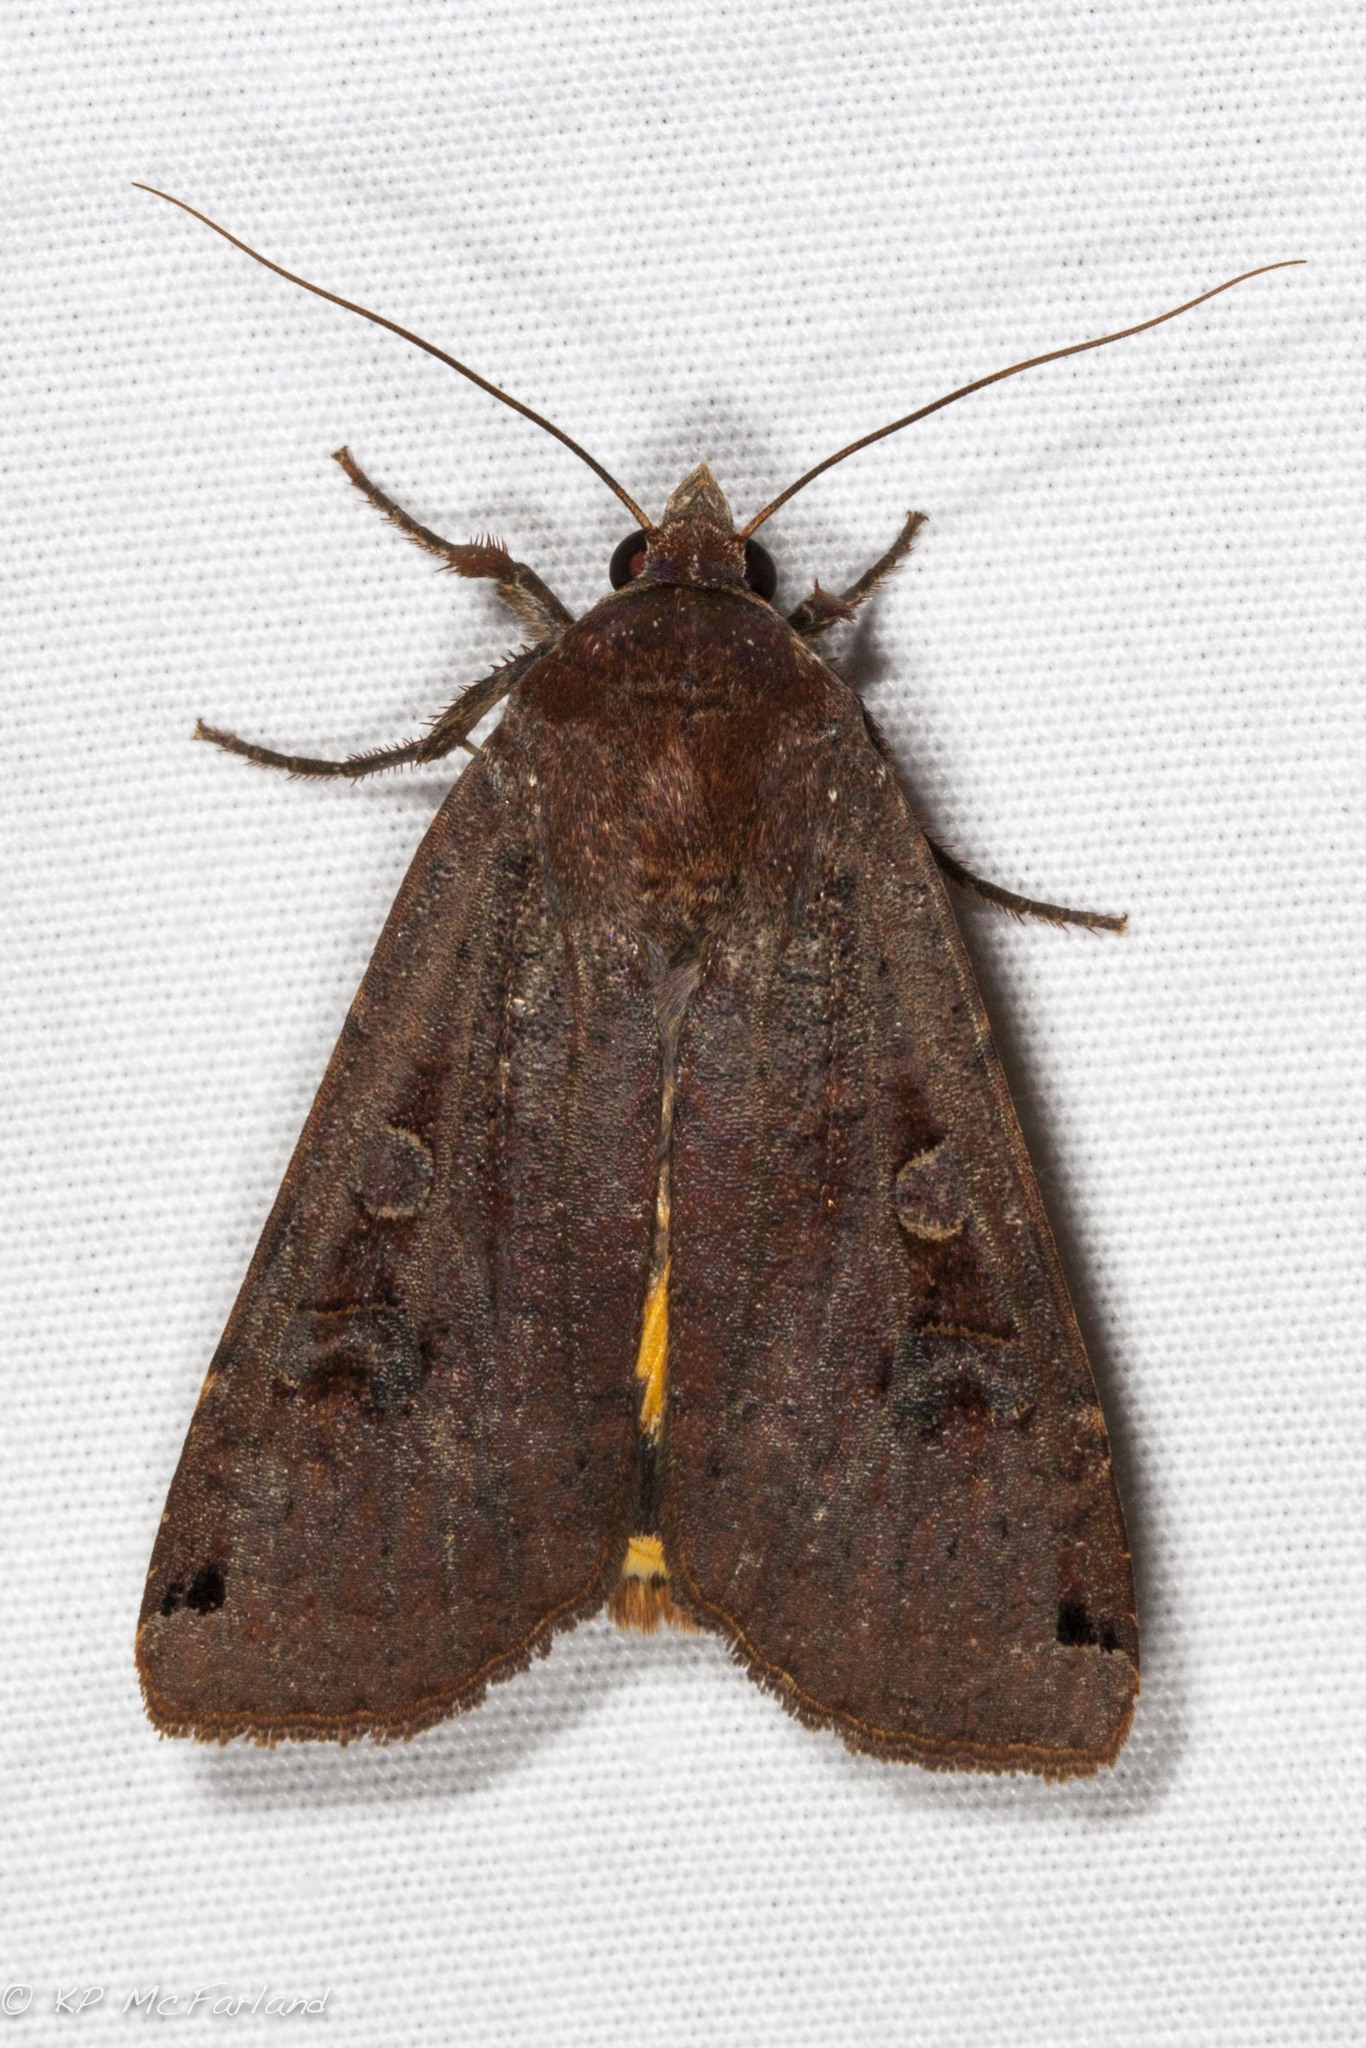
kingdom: Animalia
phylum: Arthropoda
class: Insecta
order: Lepidoptera
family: Noctuidae
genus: Noctua
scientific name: Noctua pronuba
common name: Large yellow underwing
